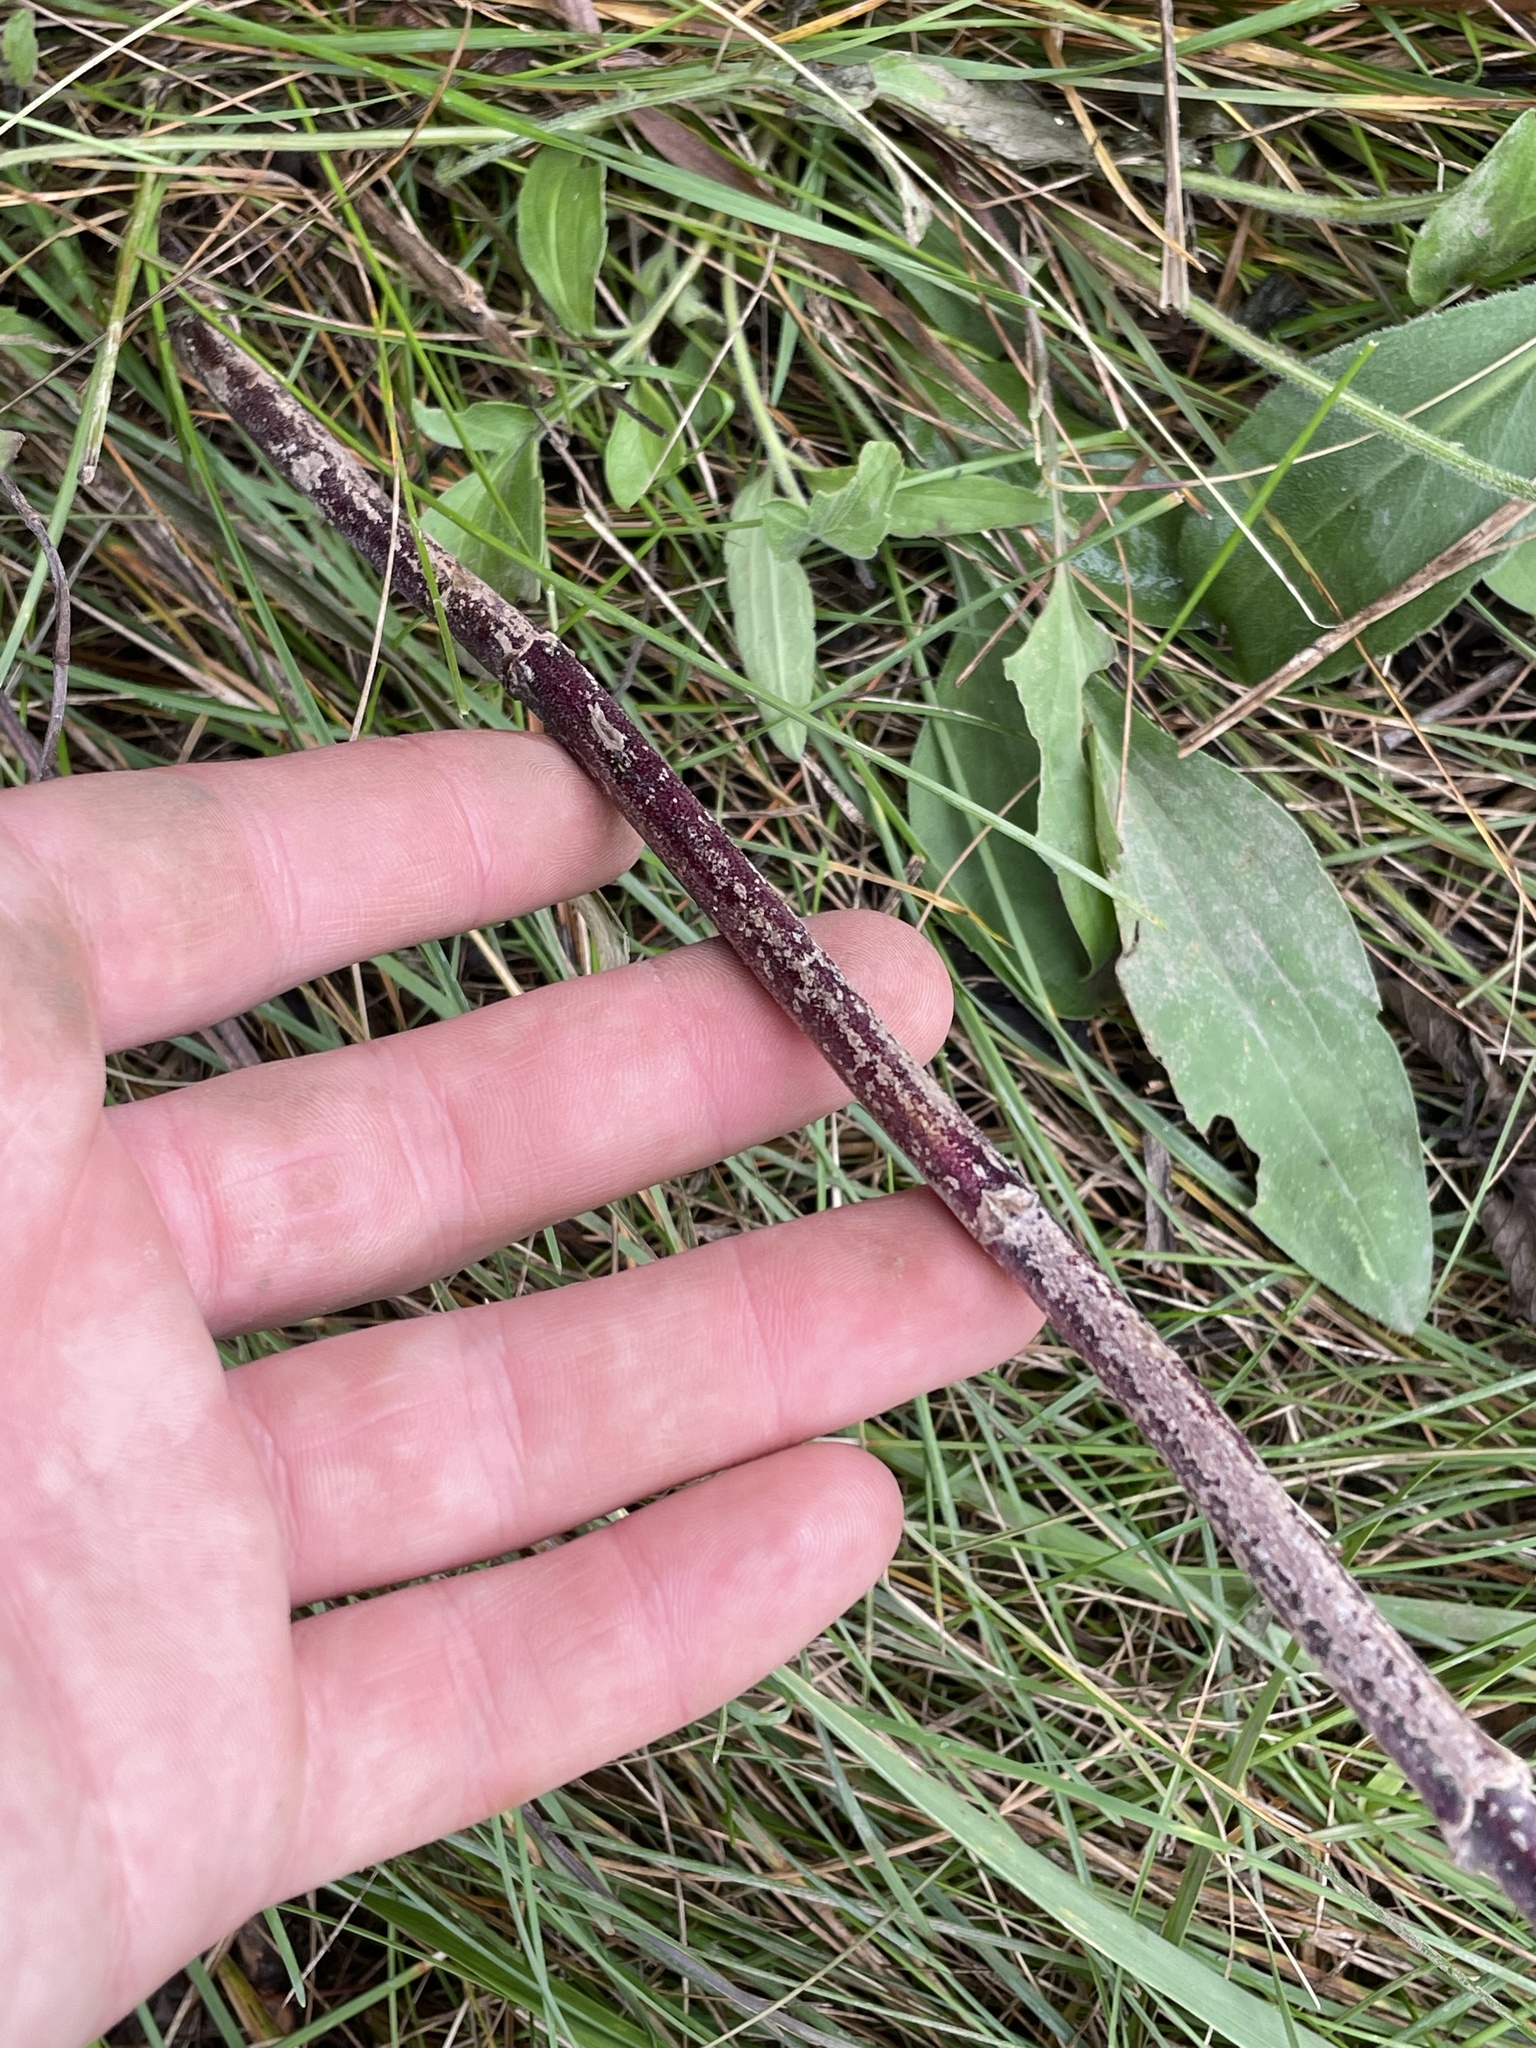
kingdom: Plantae
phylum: Tracheophyta
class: Magnoliopsida
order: Lamiales
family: Verbenaceae
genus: Verbena
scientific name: Verbena stricta
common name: Hoary vervain
